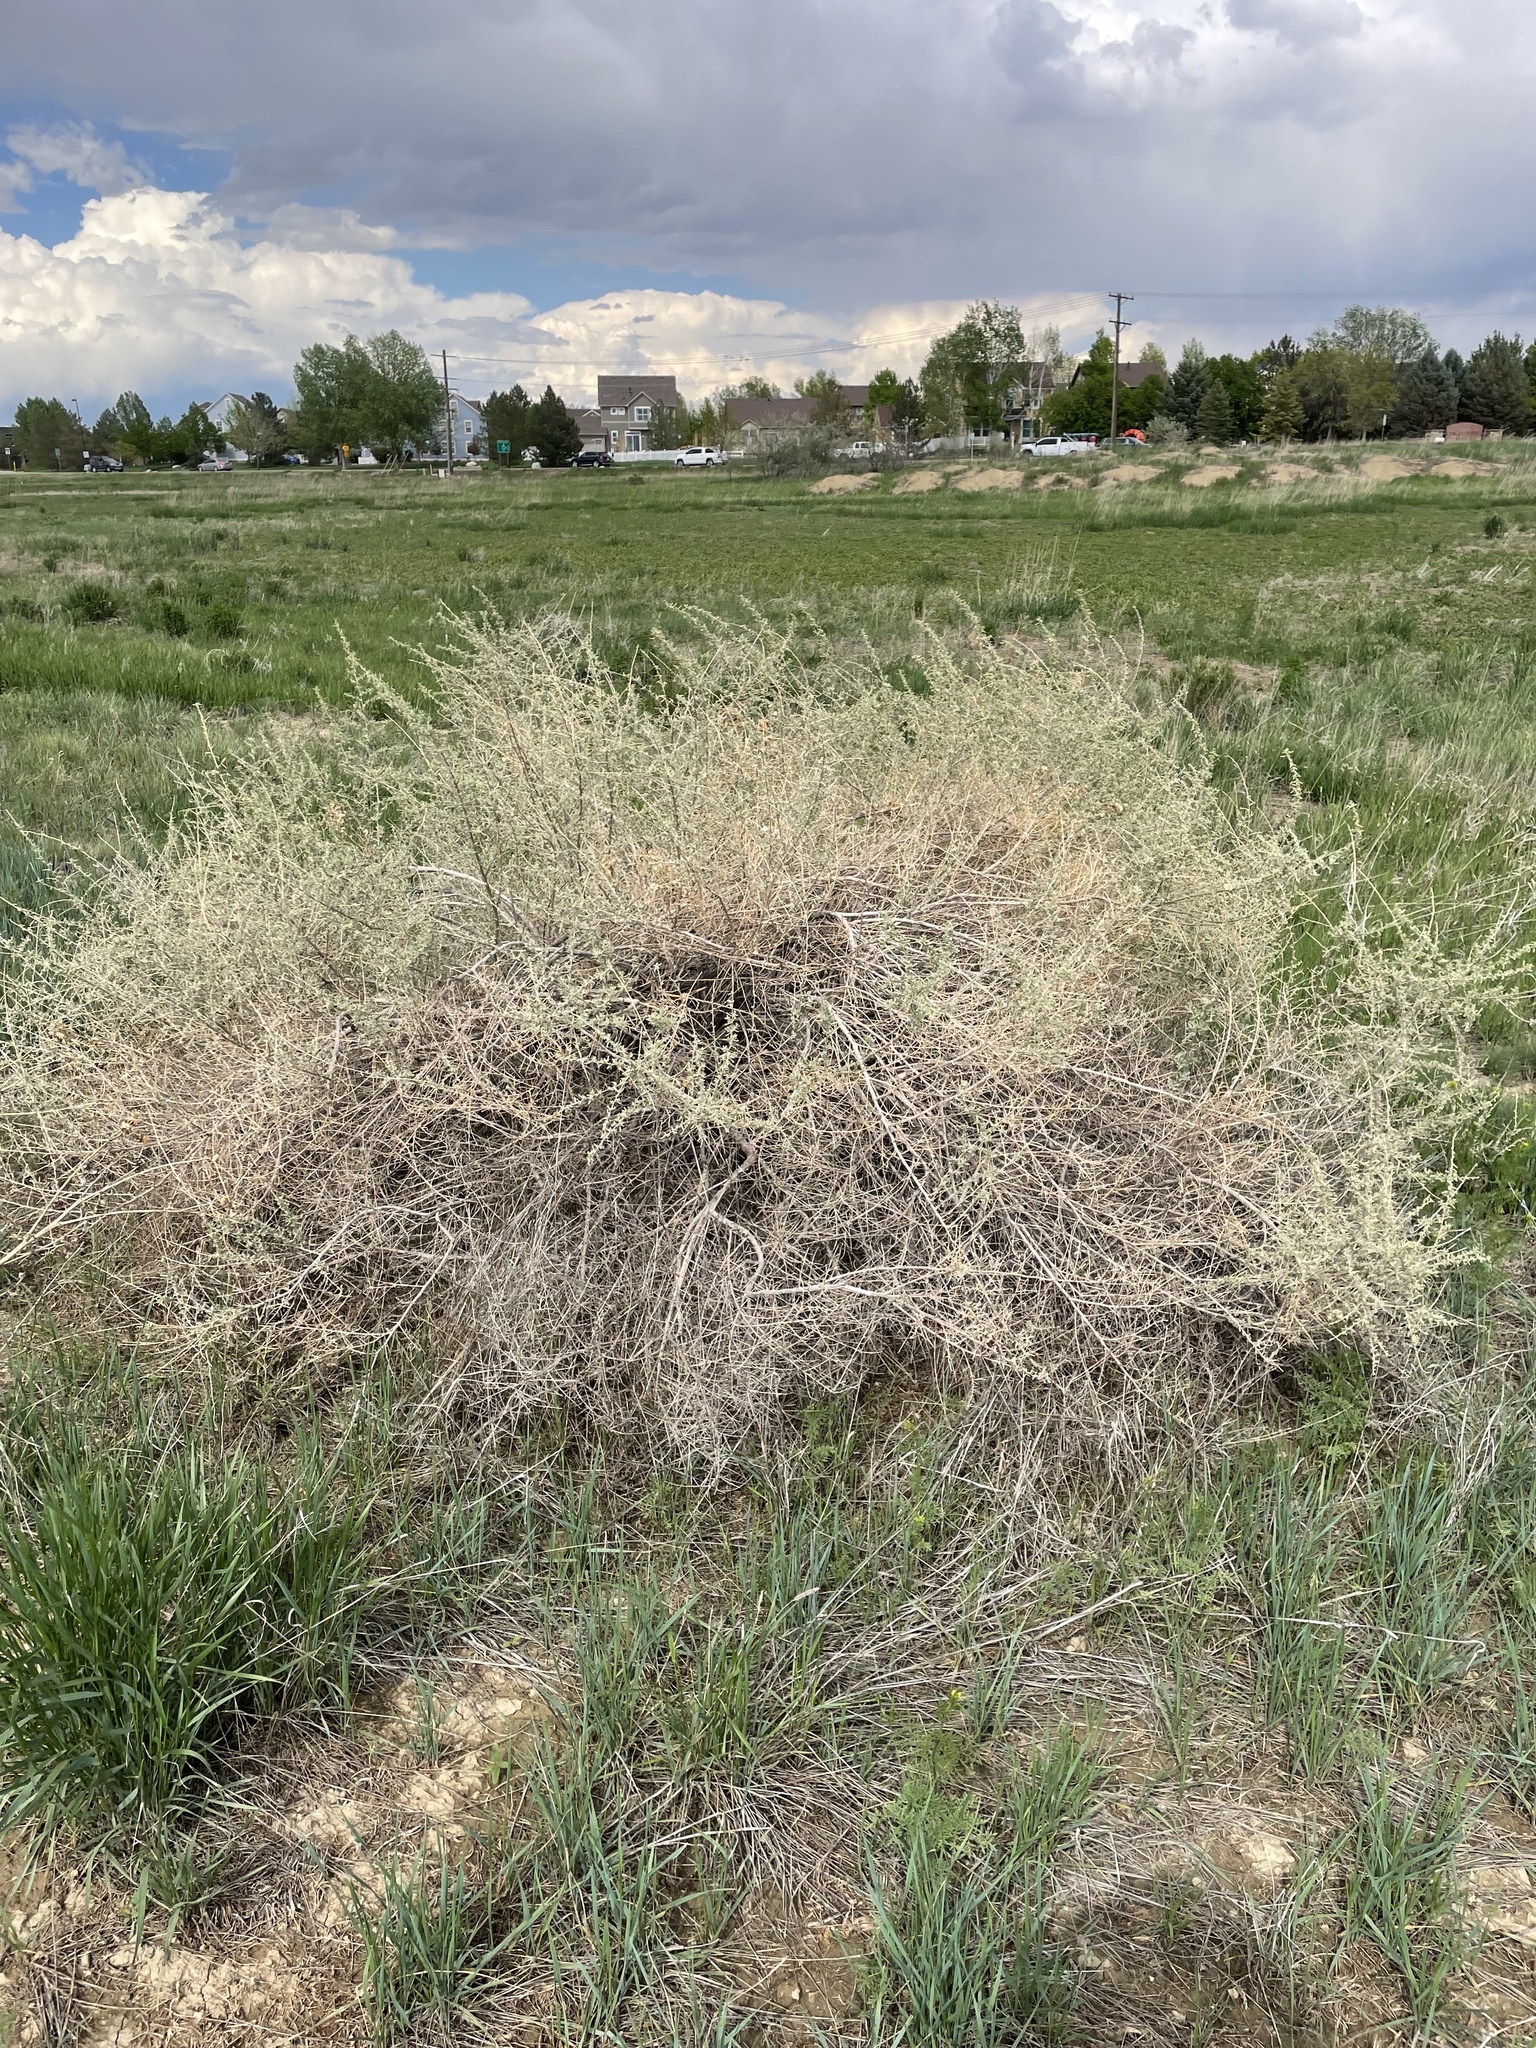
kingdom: Plantae
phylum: Tracheophyta
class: Magnoliopsida
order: Caryophyllales
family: Amaranthaceae
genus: Atriplex
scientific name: Atriplex canescens
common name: Four-wing saltbush
